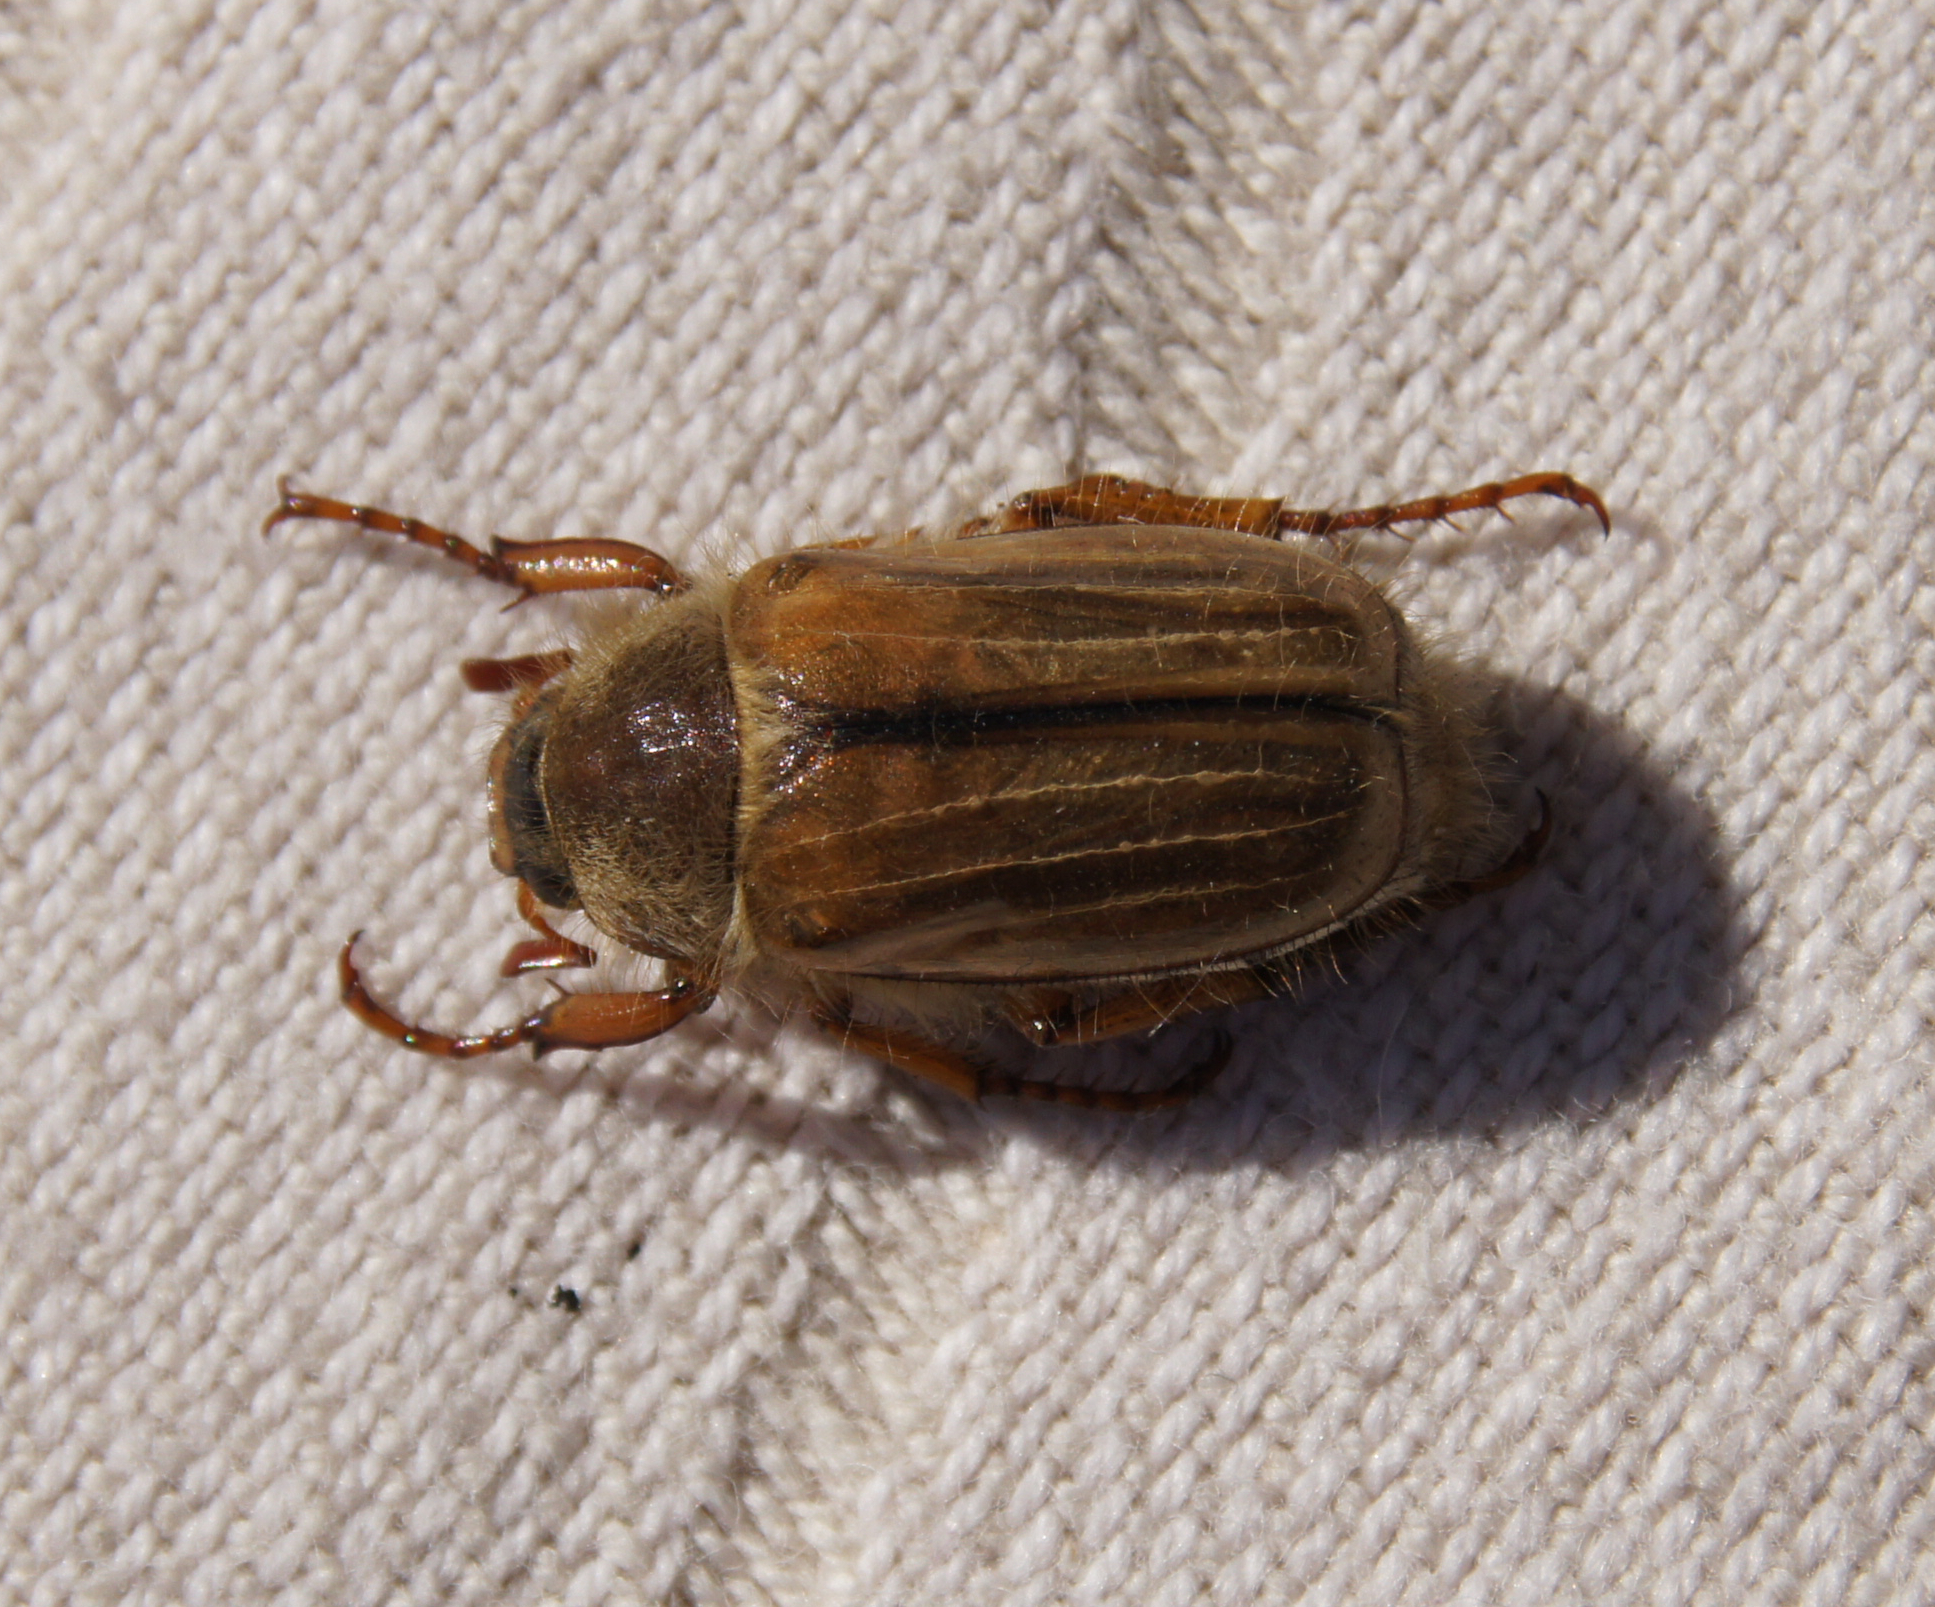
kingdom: Animalia
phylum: Arthropoda
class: Insecta
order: Coleoptera
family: Scarabaeidae
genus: Amphimallon
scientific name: Amphimallon solstitiale
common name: Summer chafer
